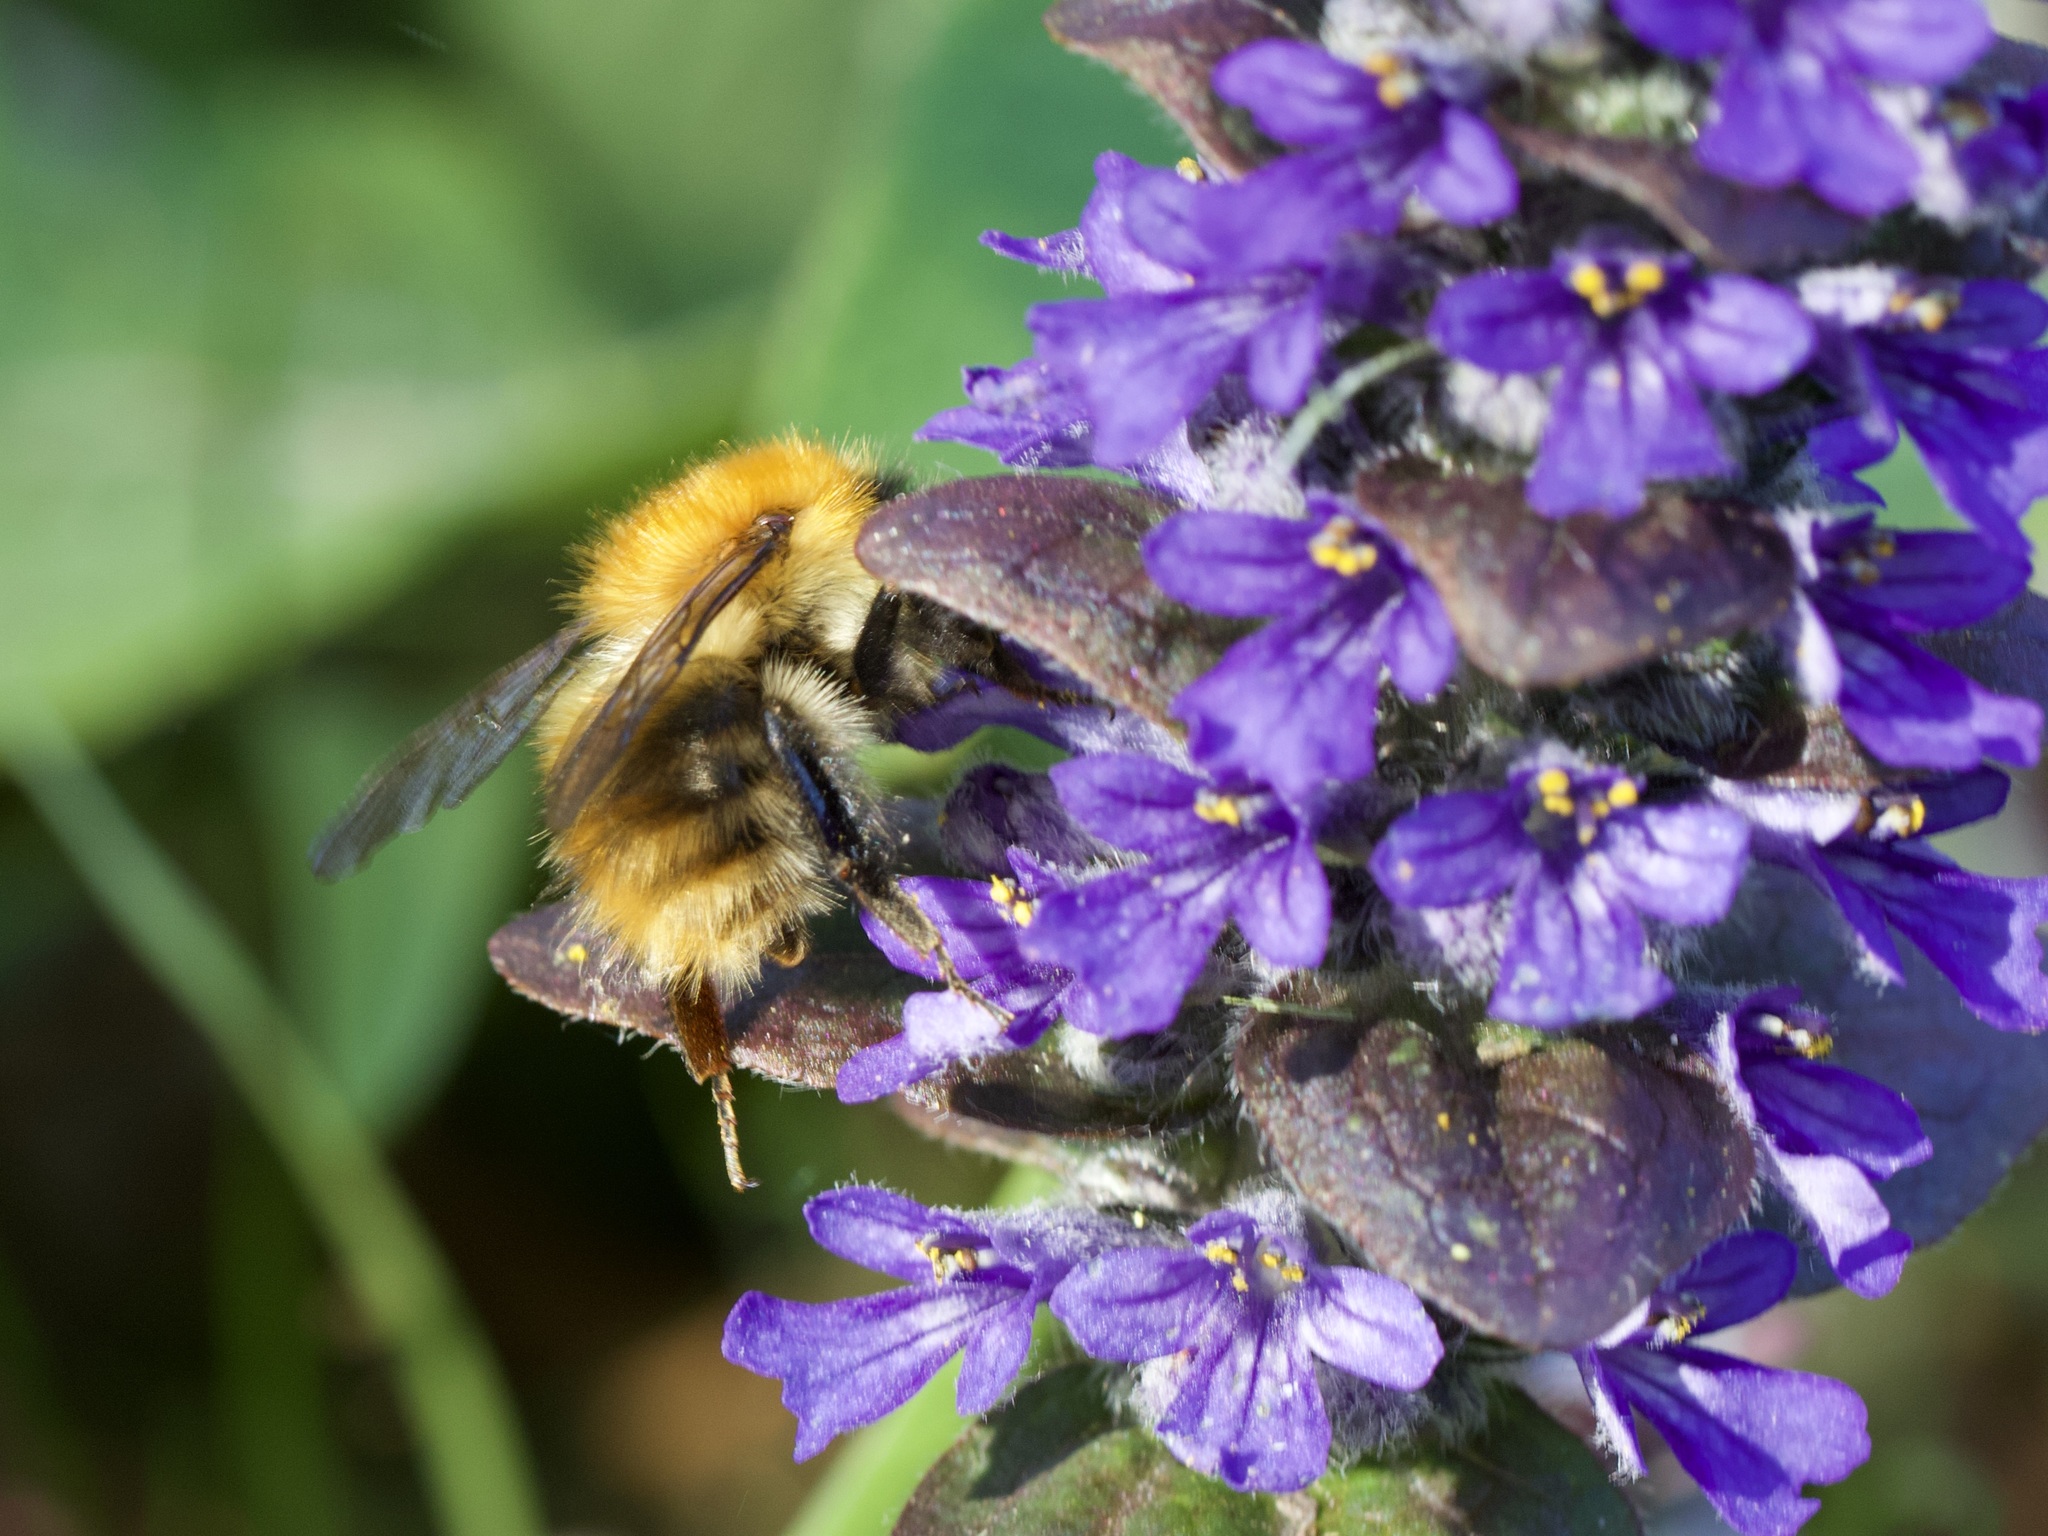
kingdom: Animalia
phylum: Arthropoda
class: Insecta
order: Hymenoptera
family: Apidae
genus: Bombus
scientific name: Bombus pascuorum
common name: Common carder bee
